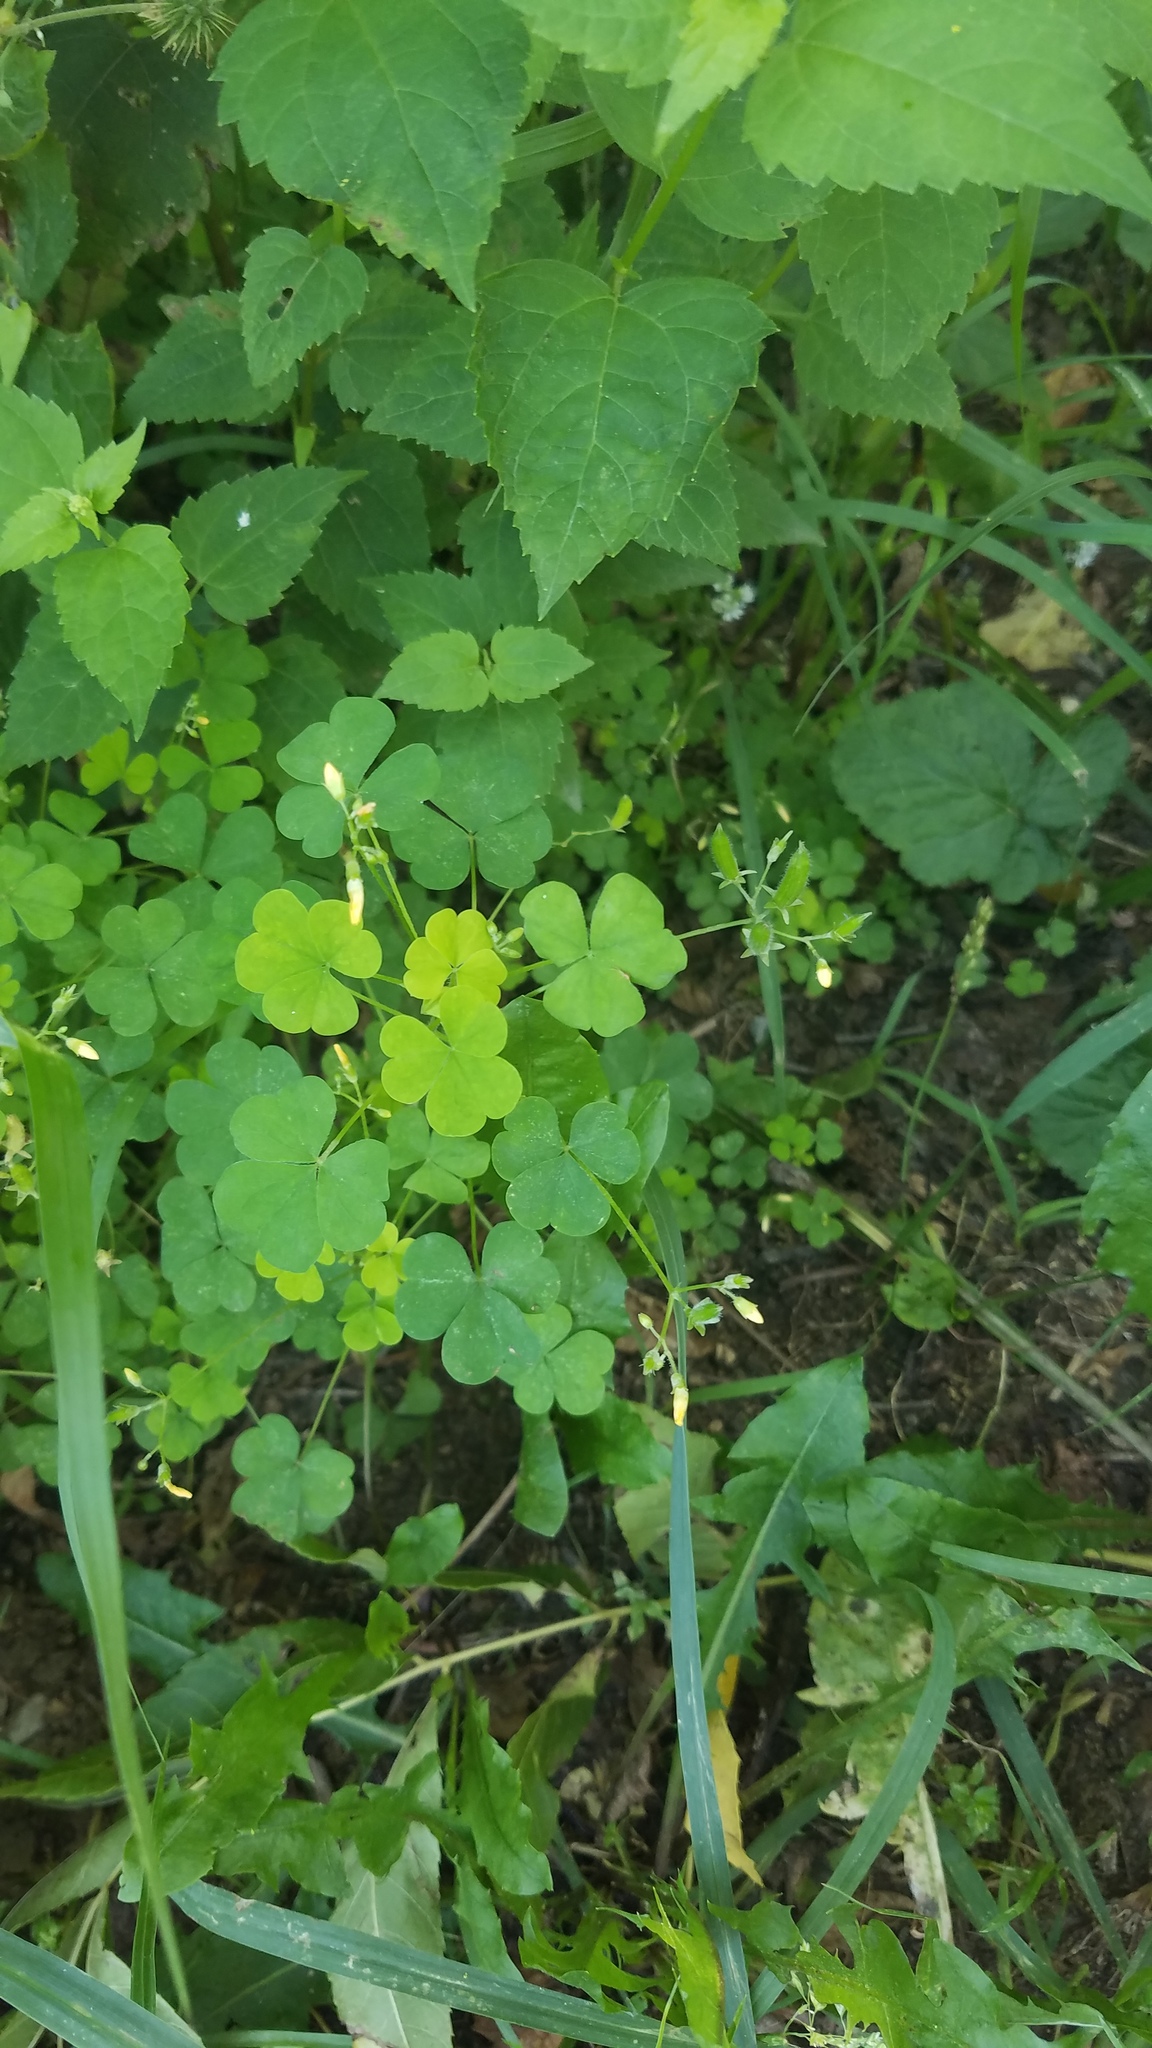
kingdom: Plantae
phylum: Tracheophyta
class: Magnoliopsida
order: Oxalidales
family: Oxalidaceae
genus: Oxalis
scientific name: Oxalis stricta
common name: Upright yellow-sorrel
